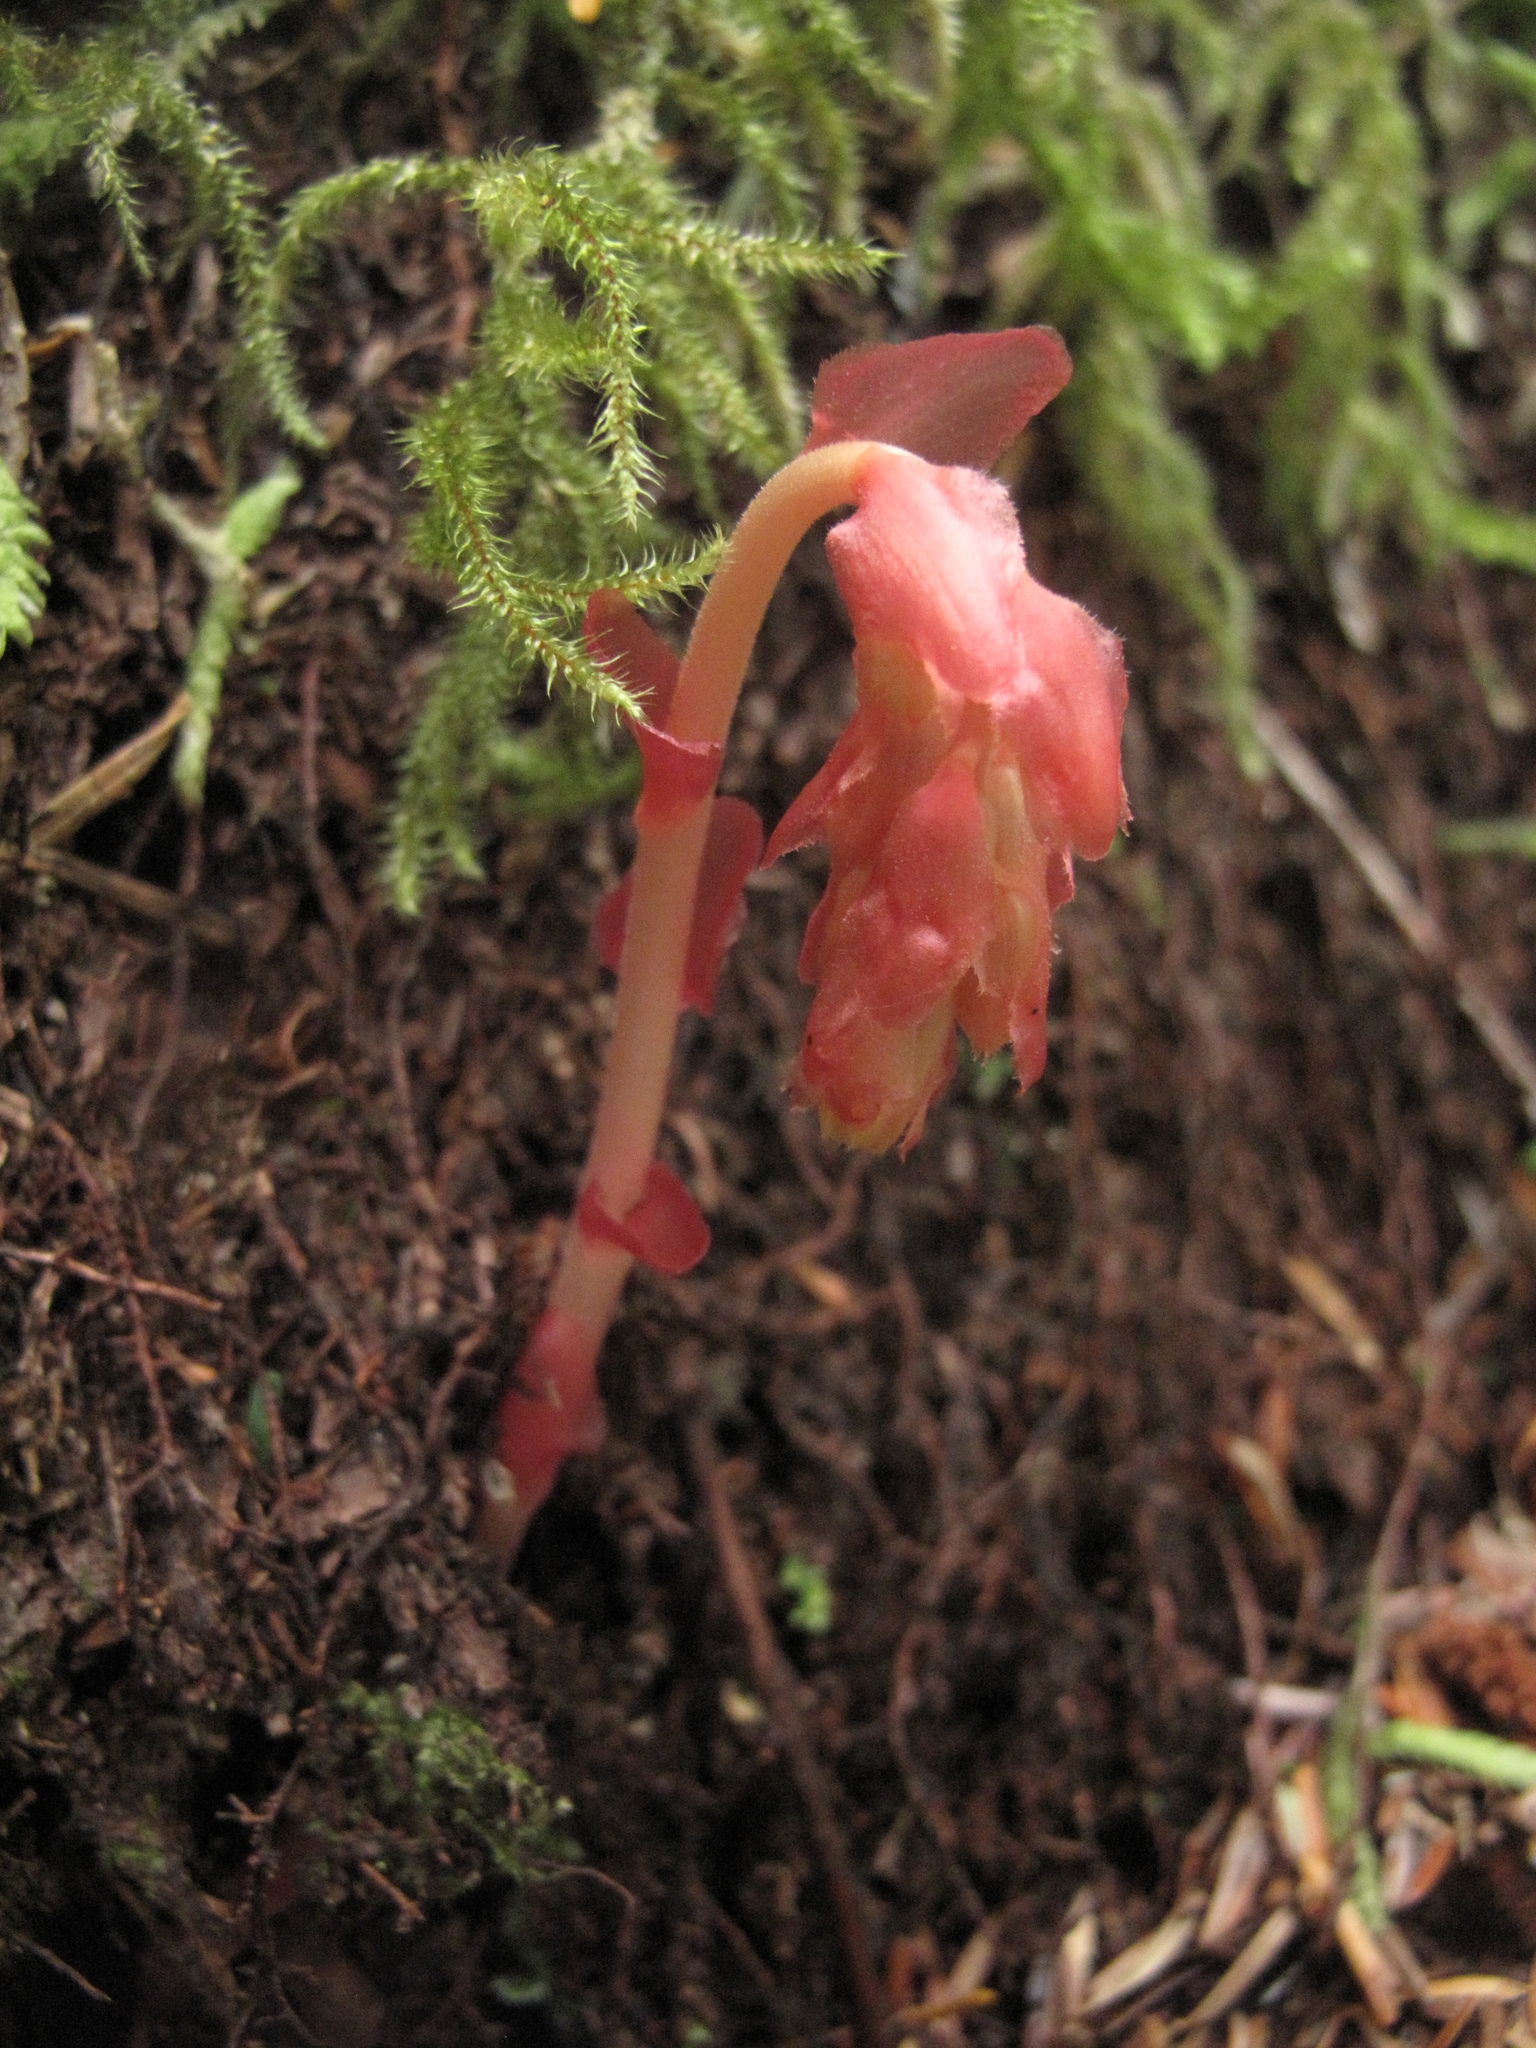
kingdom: Plantae
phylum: Tracheophyta
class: Magnoliopsida
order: Ericales
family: Ericaceae
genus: Hypopitys
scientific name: Hypopitys monotropa
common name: Yellow bird's-nest
